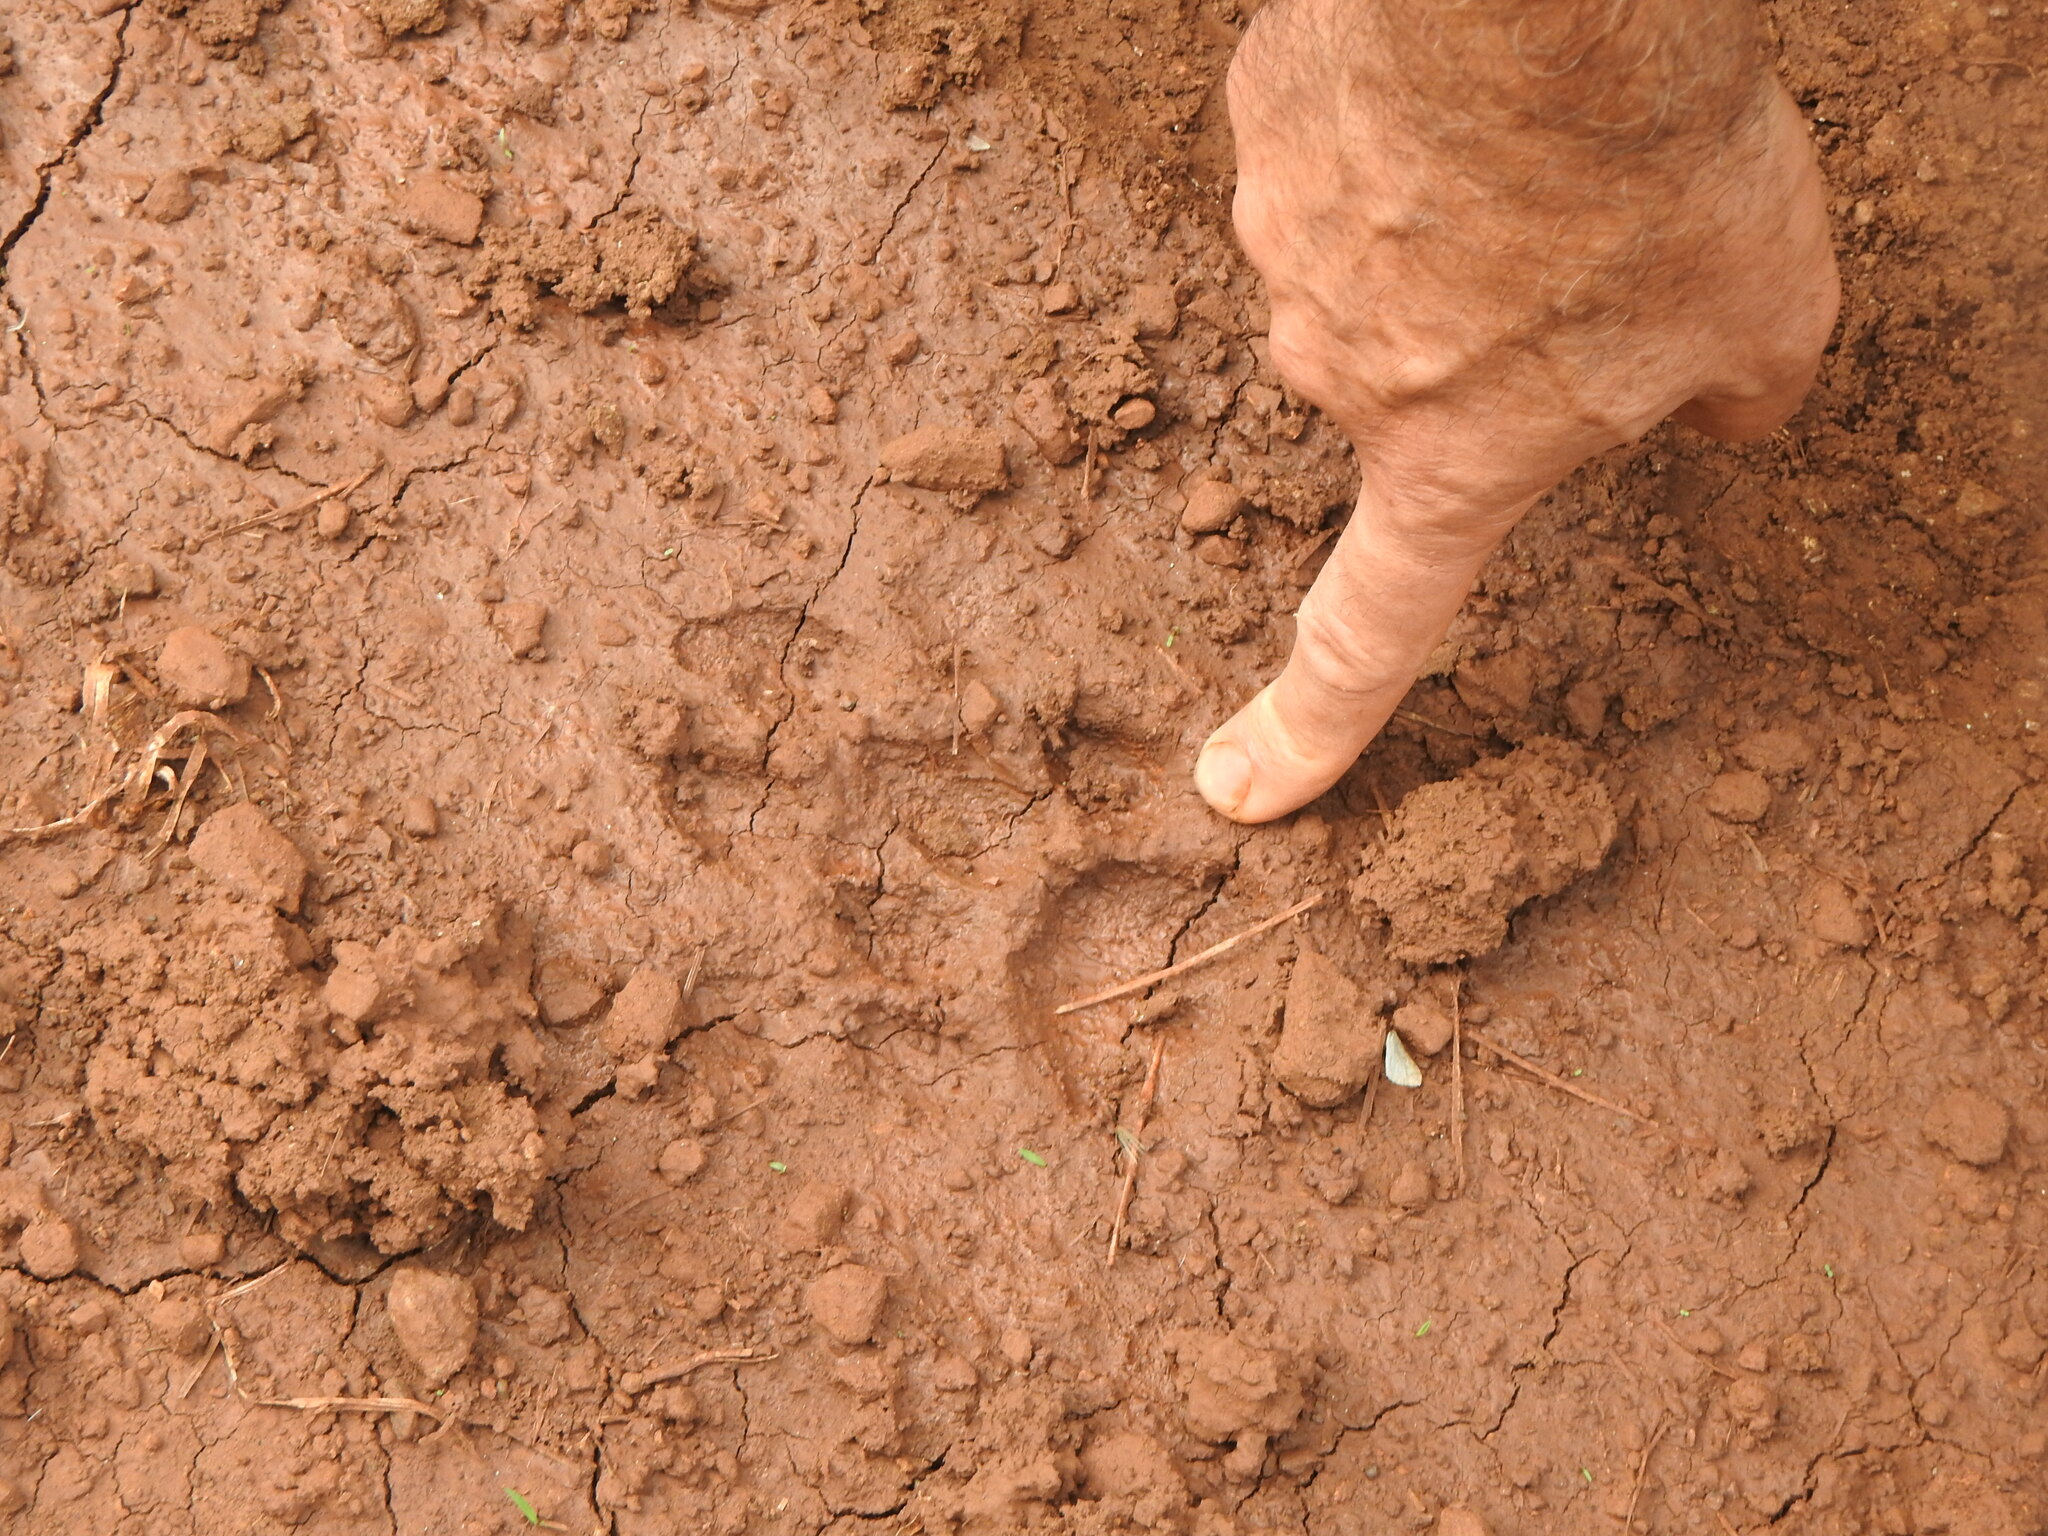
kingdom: Animalia
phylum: Chordata
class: Mammalia
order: Carnivora
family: Felidae
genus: Puma
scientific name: Puma concolor
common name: Puma
